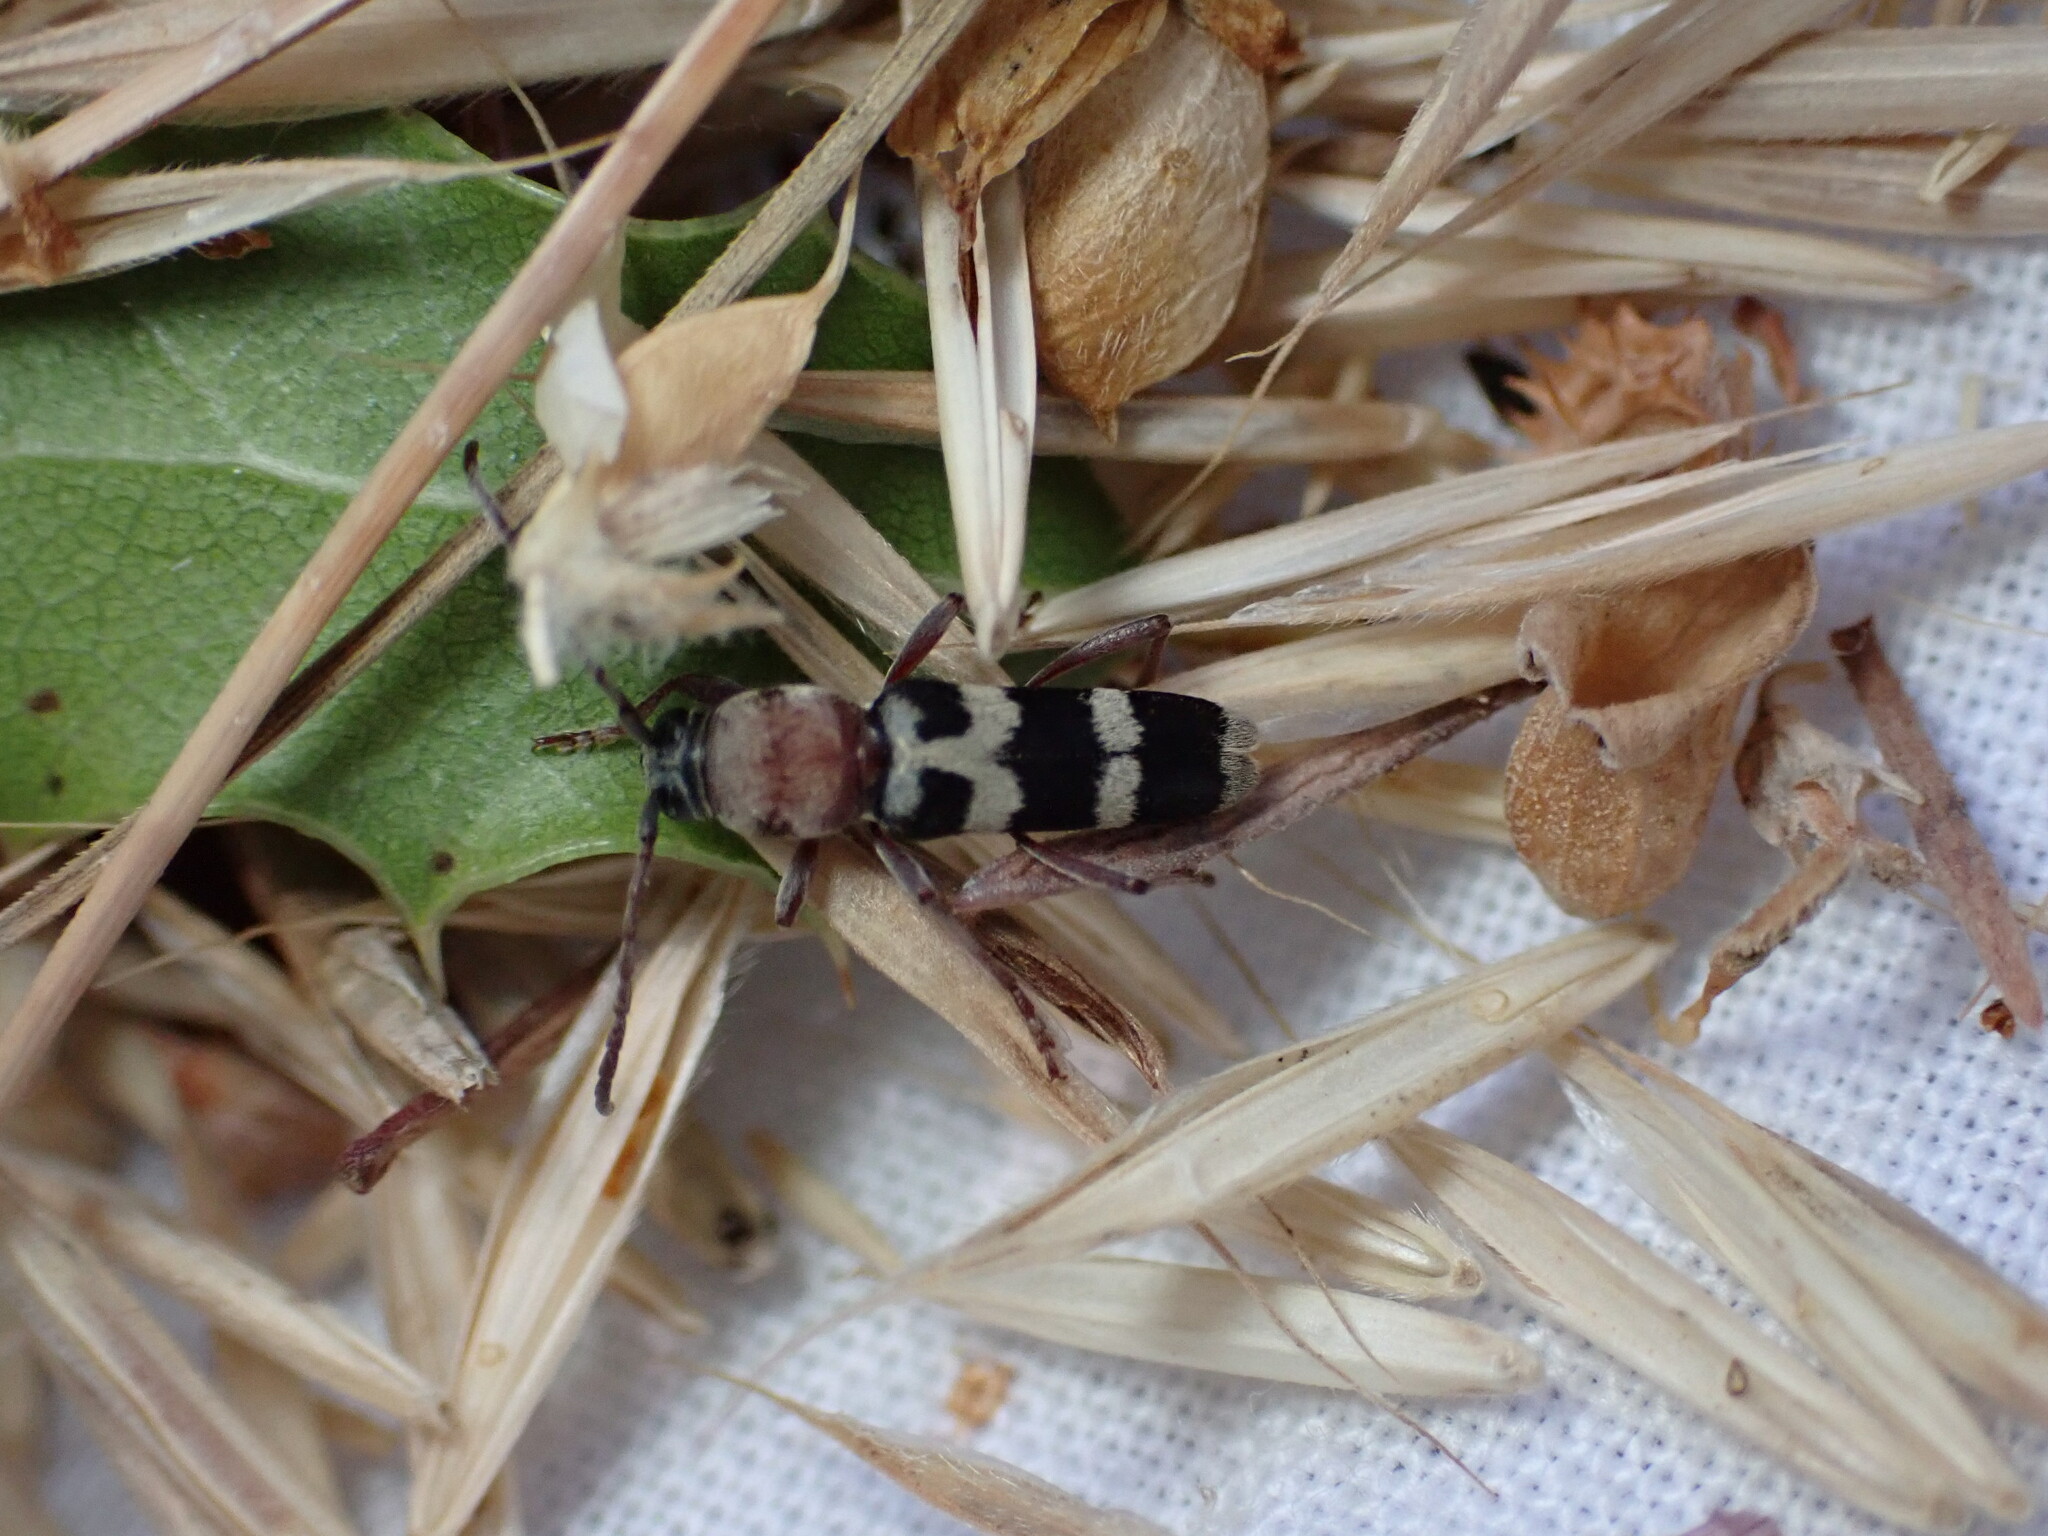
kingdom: Animalia
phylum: Arthropoda
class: Insecta
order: Coleoptera
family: Cerambycidae
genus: Chlorophorus
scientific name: Chlorophorus trifasciatus
